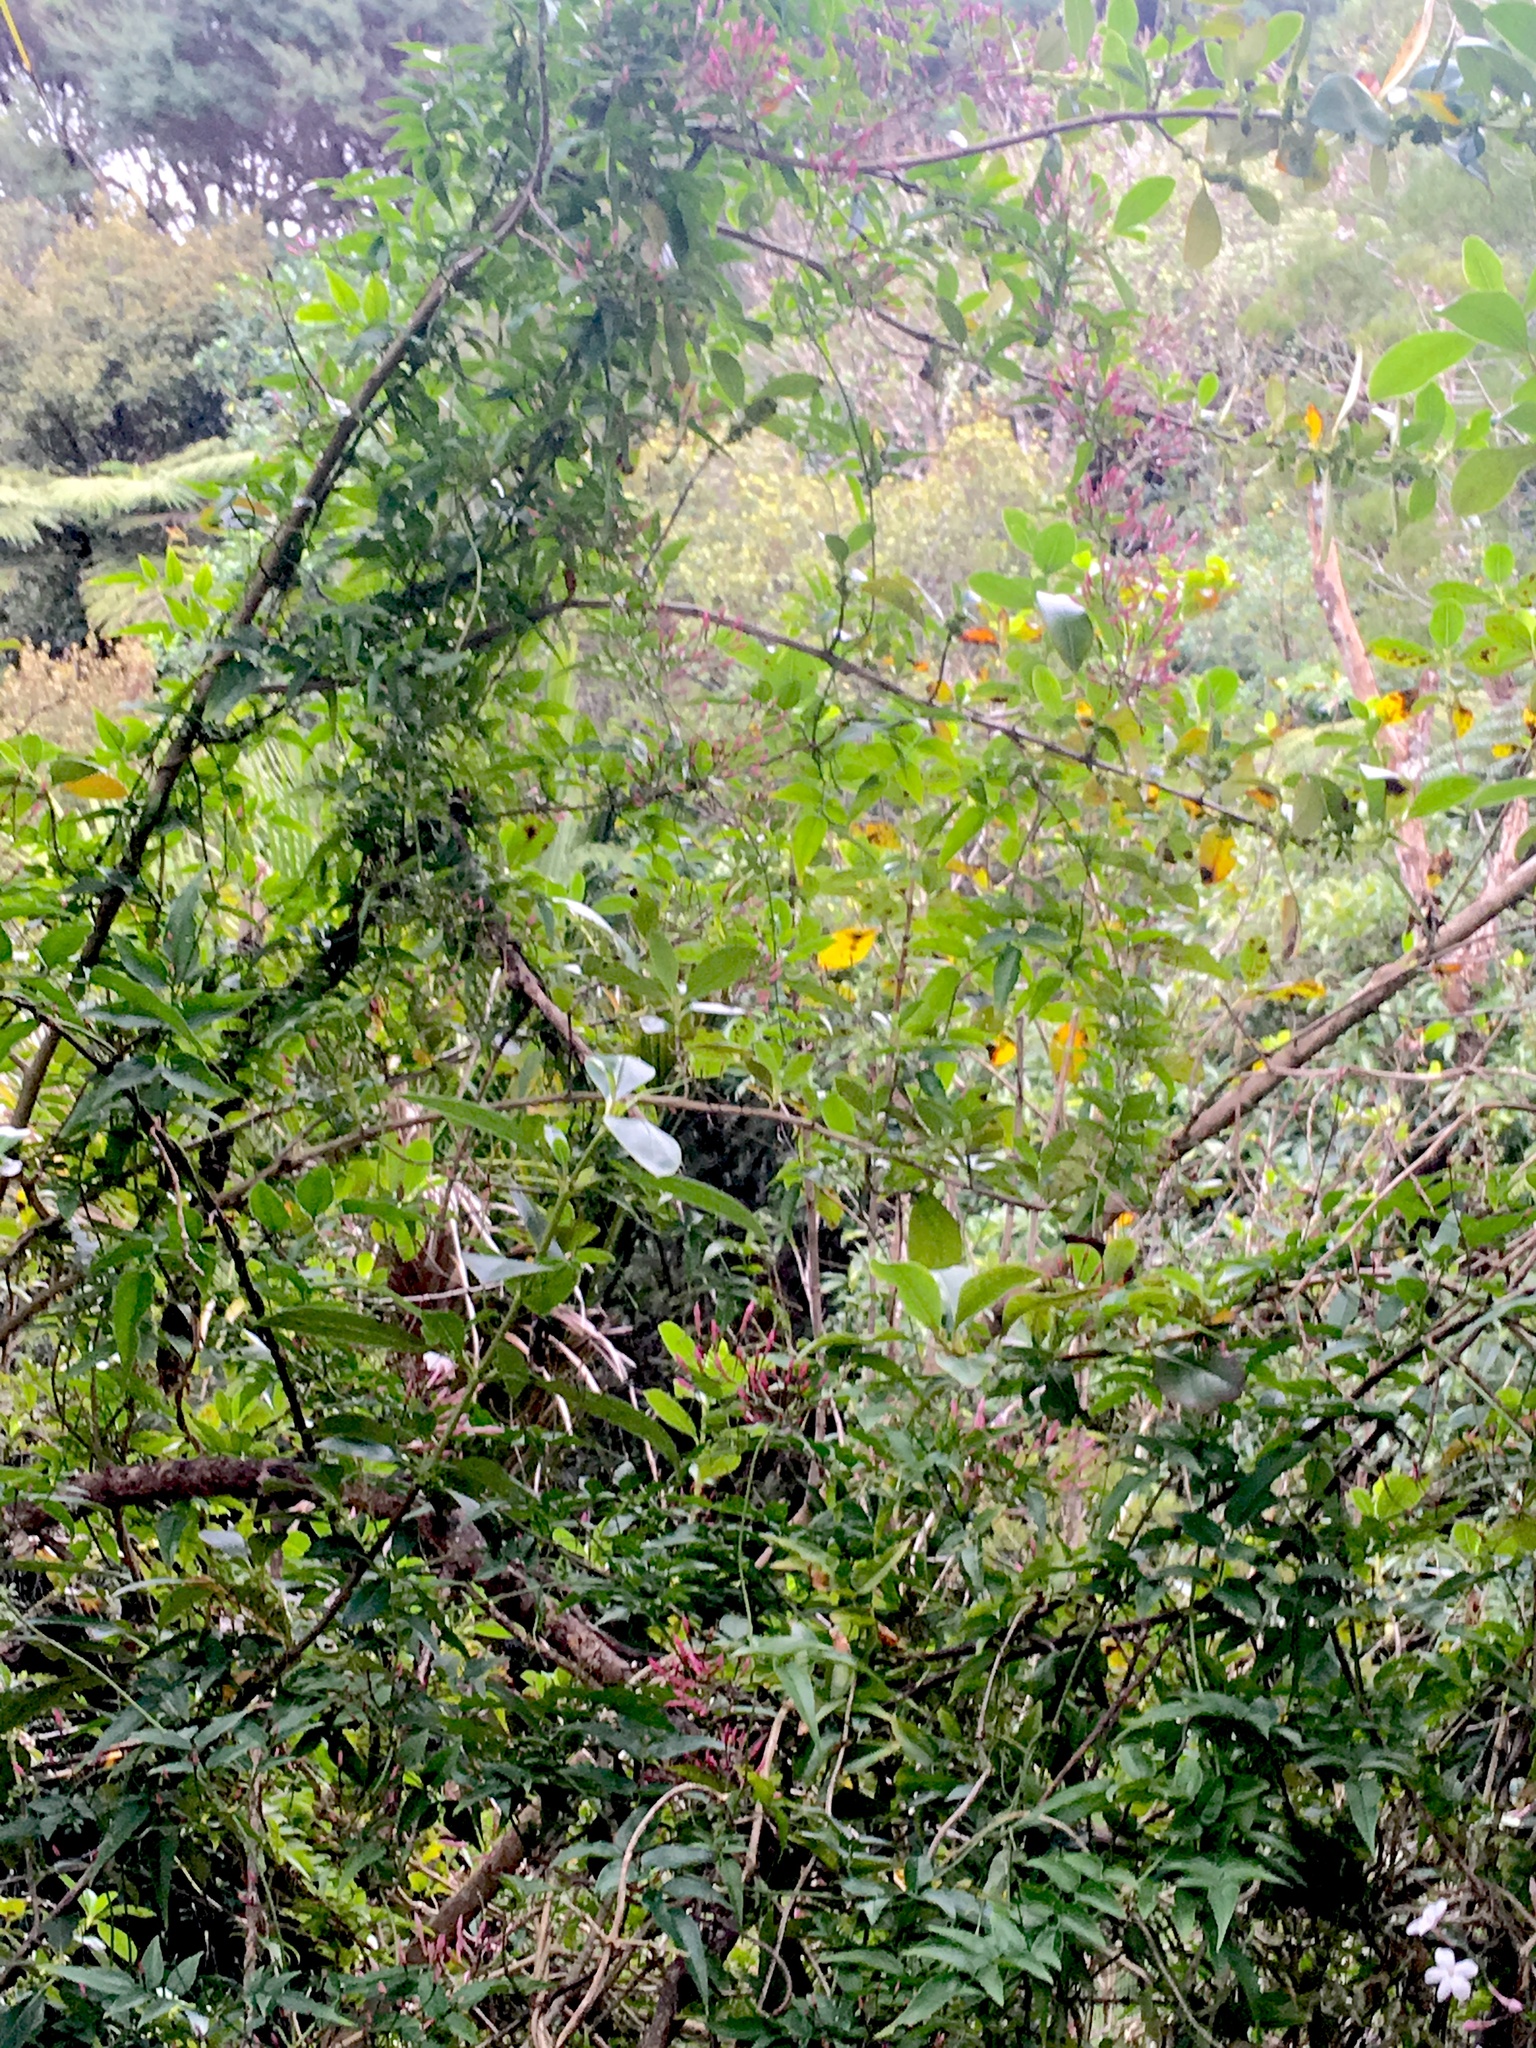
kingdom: Plantae
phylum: Tracheophyta
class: Magnoliopsida
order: Lamiales
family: Oleaceae
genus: Jasminum
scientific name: Jasminum polyanthum
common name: Pink jasmine
